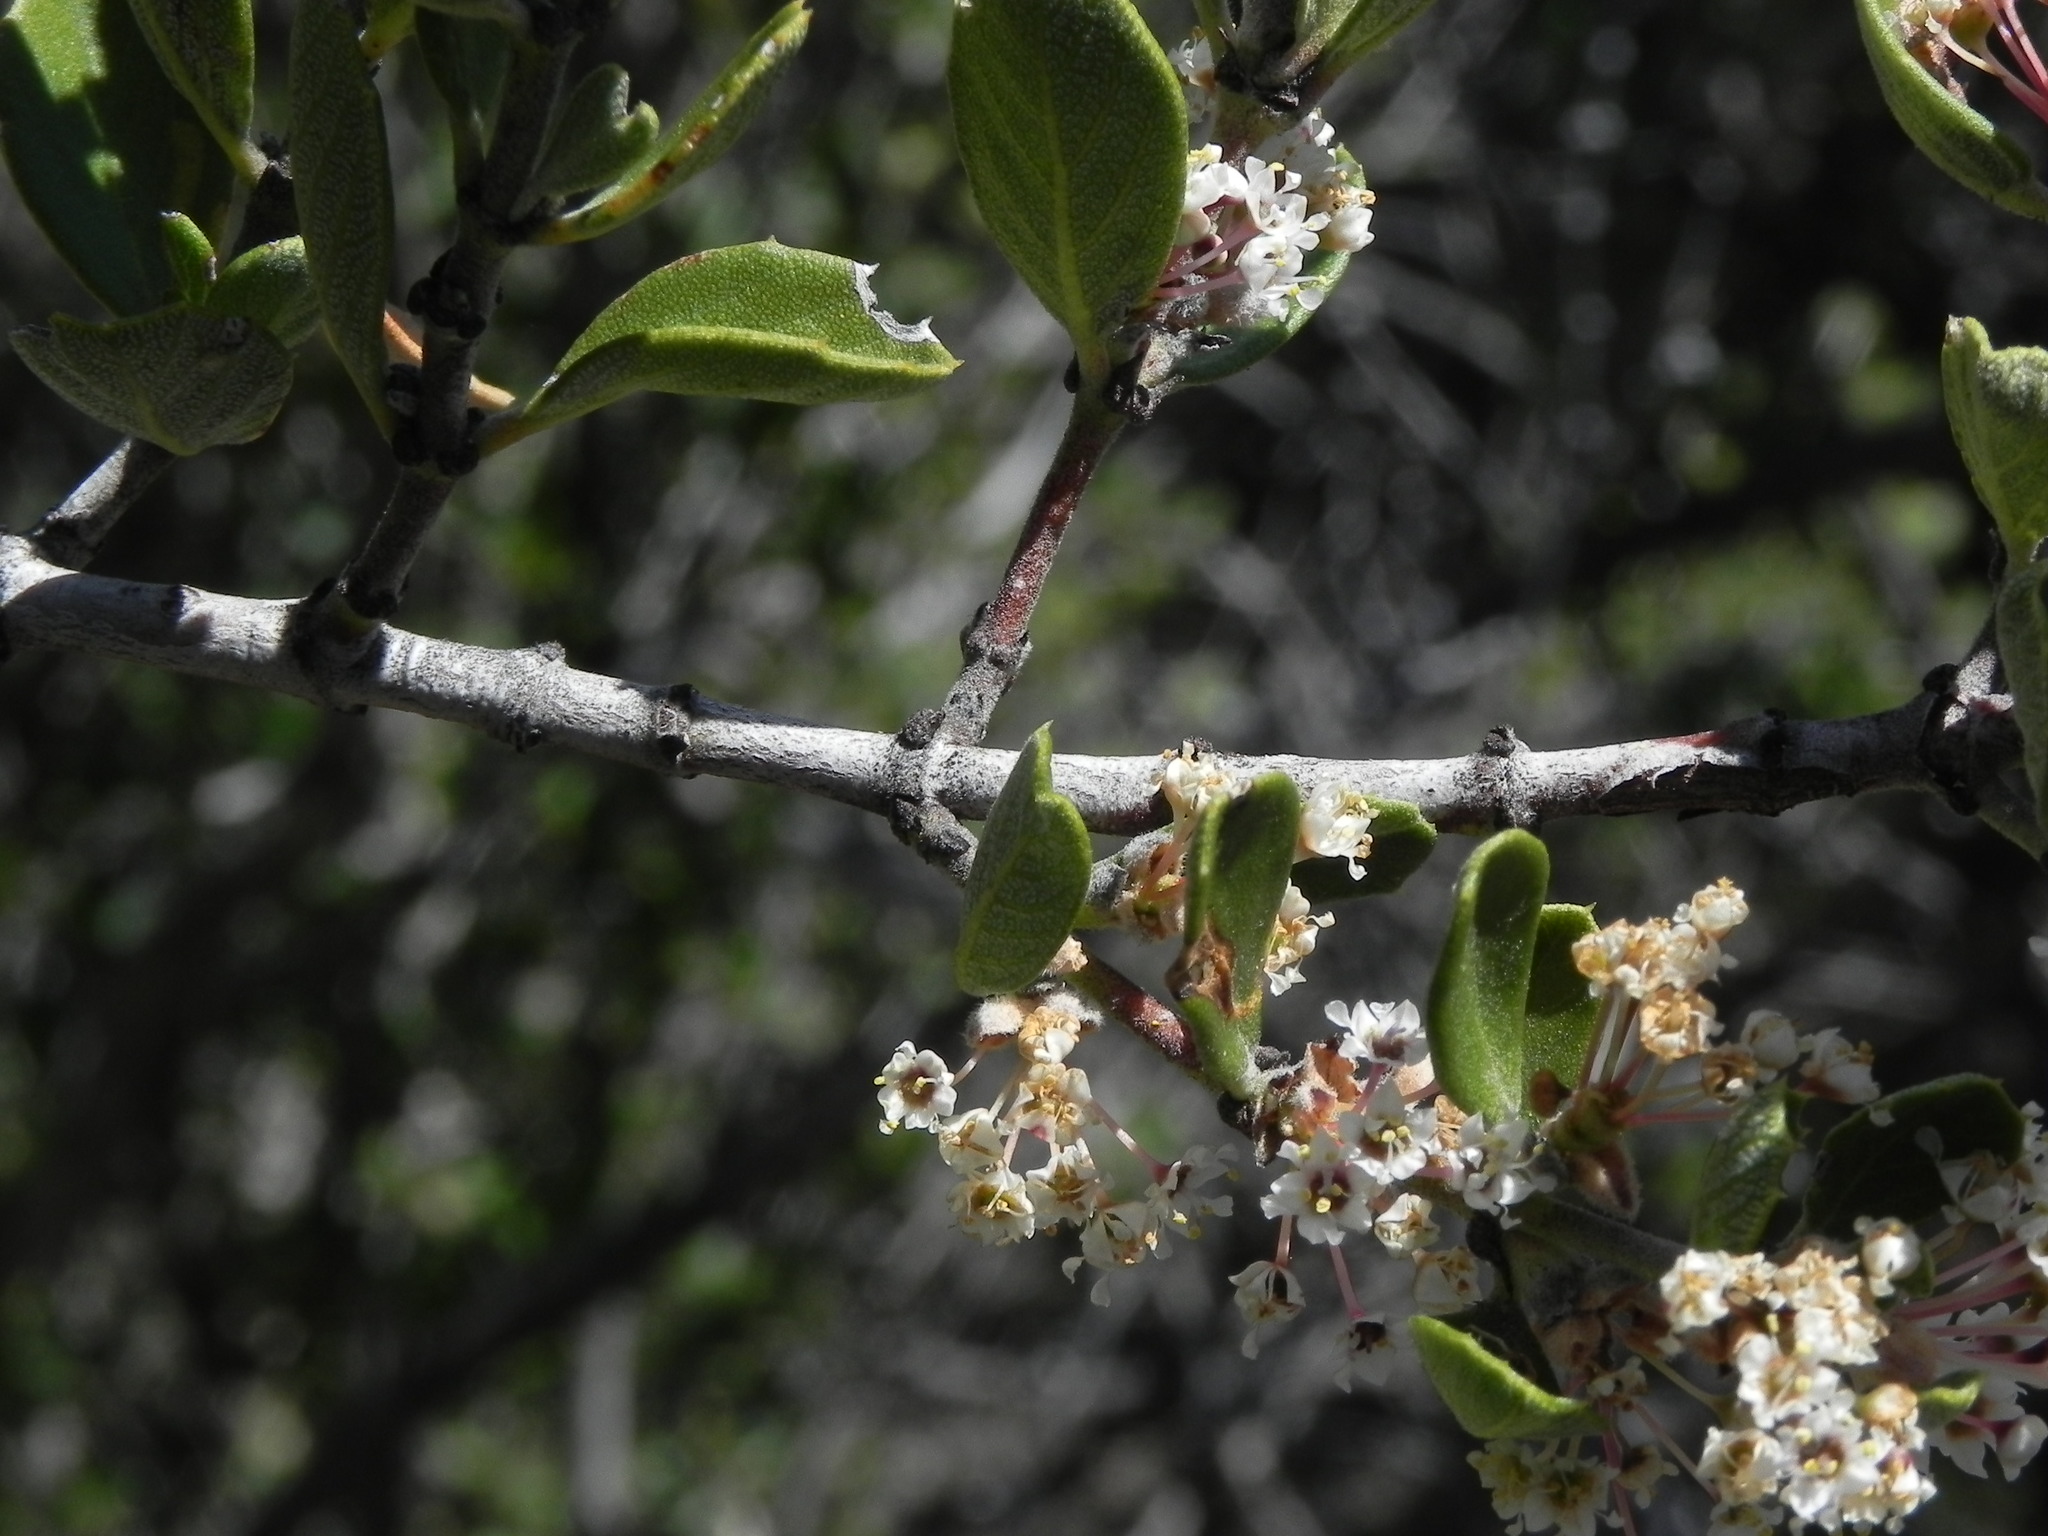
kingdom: Plantae
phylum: Tracheophyta
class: Magnoliopsida
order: Rosales
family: Rhamnaceae
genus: Ceanothus
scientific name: Ceanothus perplexans
